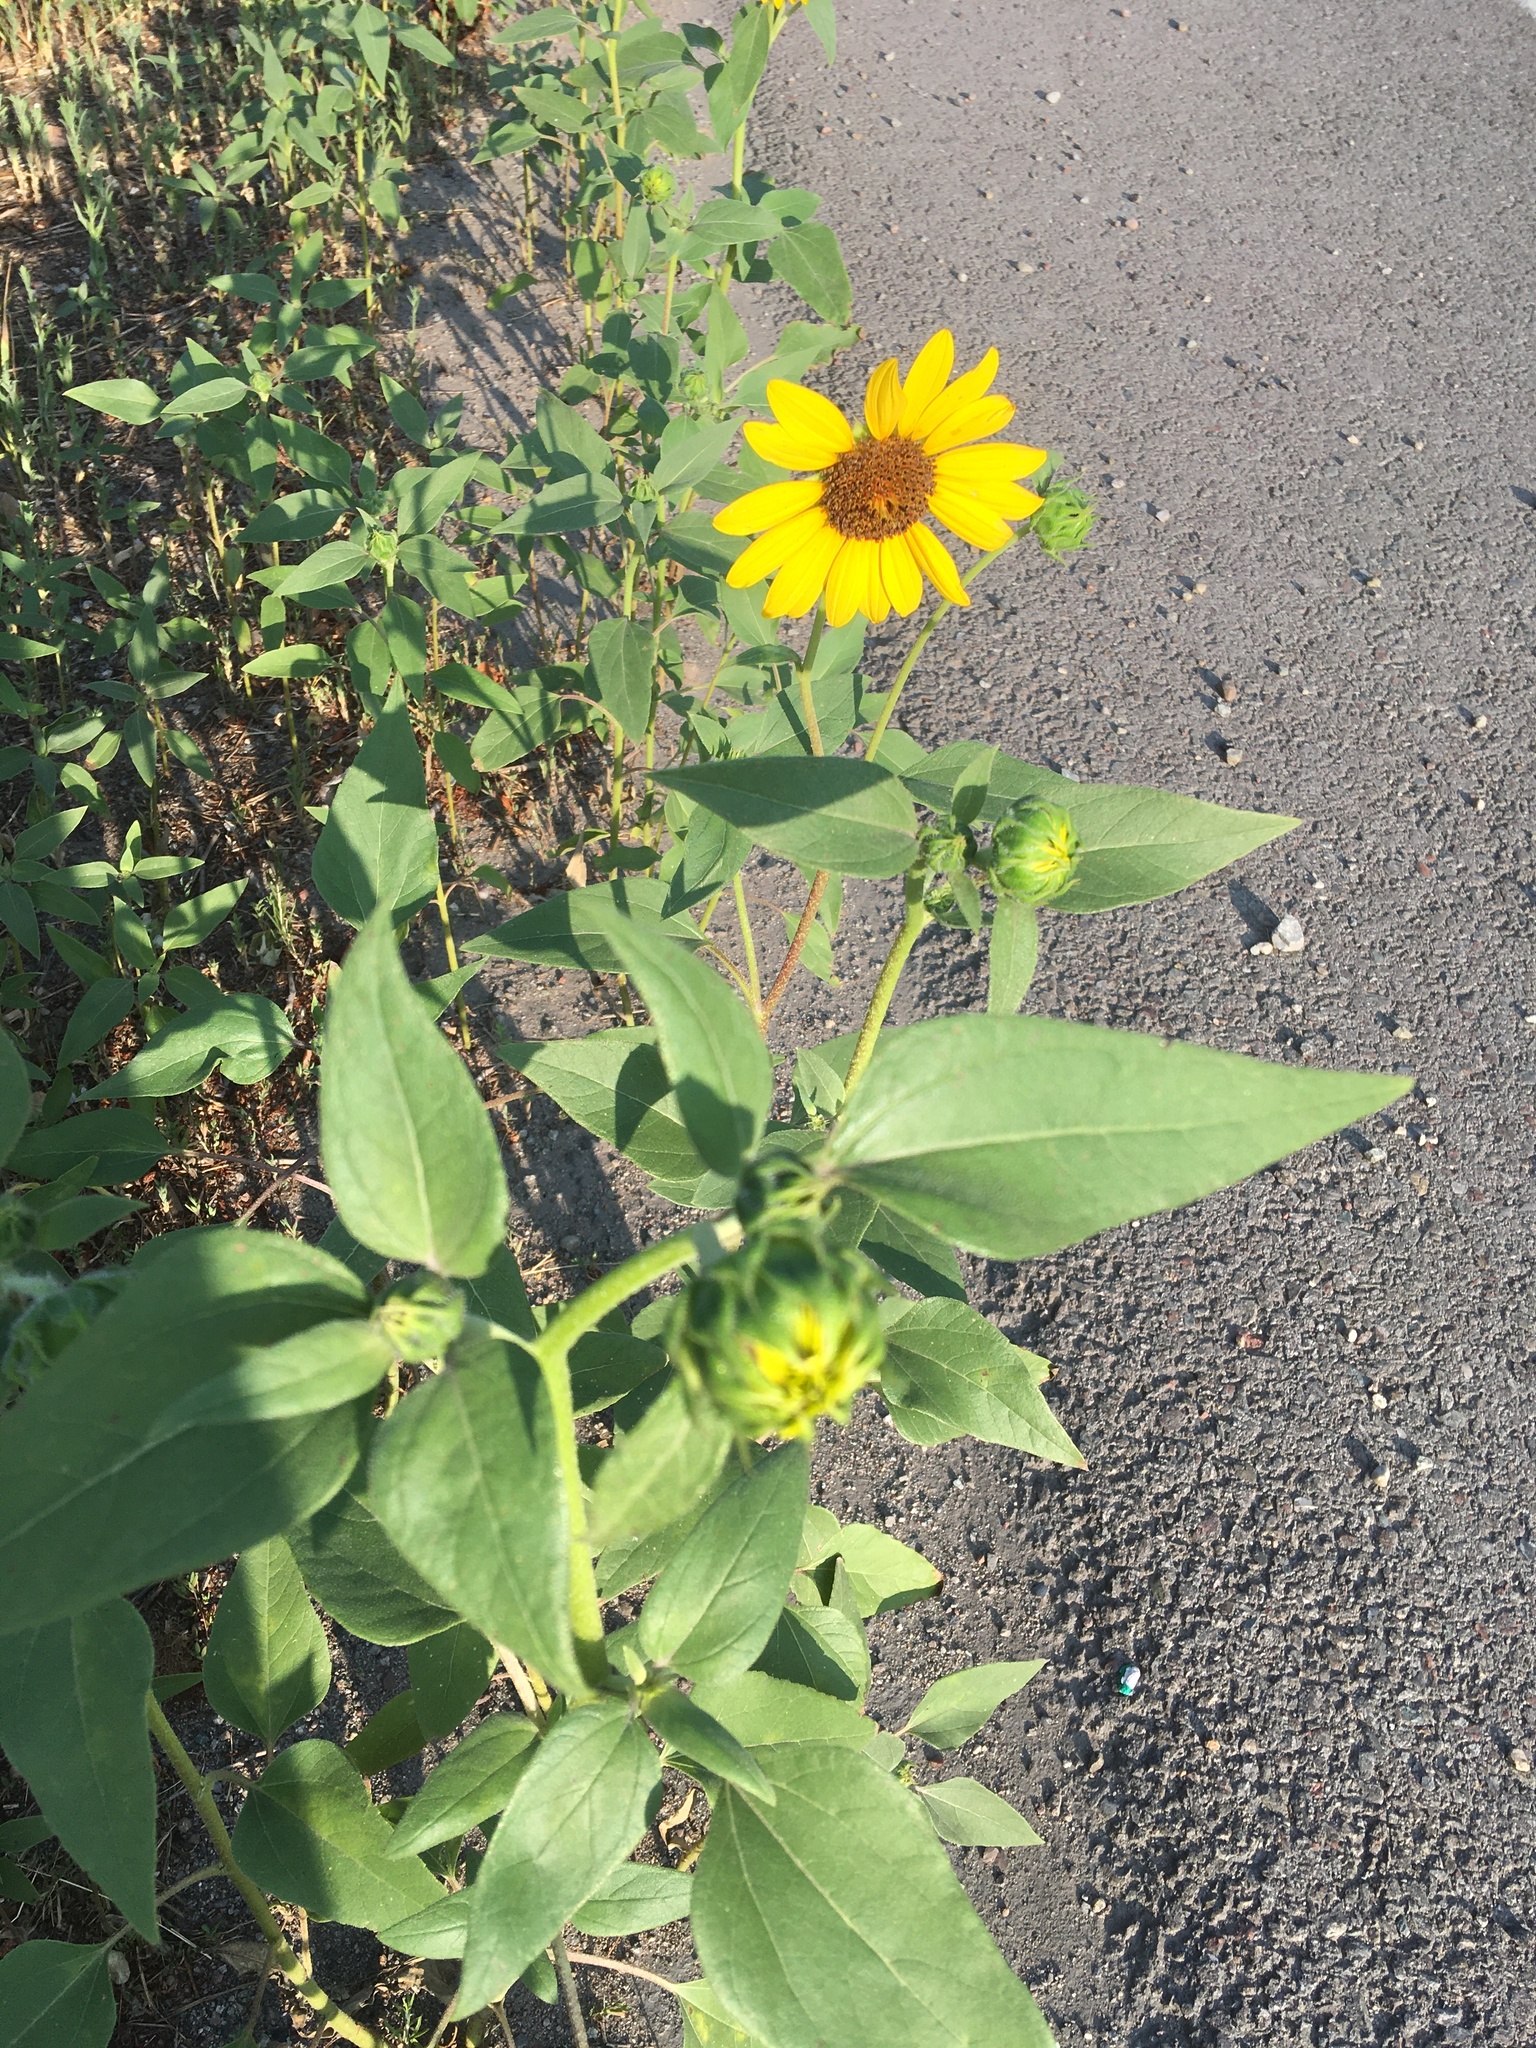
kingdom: Plantae
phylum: Tracheophyta
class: Magnoliopsida
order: Asterales
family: Asteraceae
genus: Helianthus
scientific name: Helianthus annuus
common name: Sunflower
